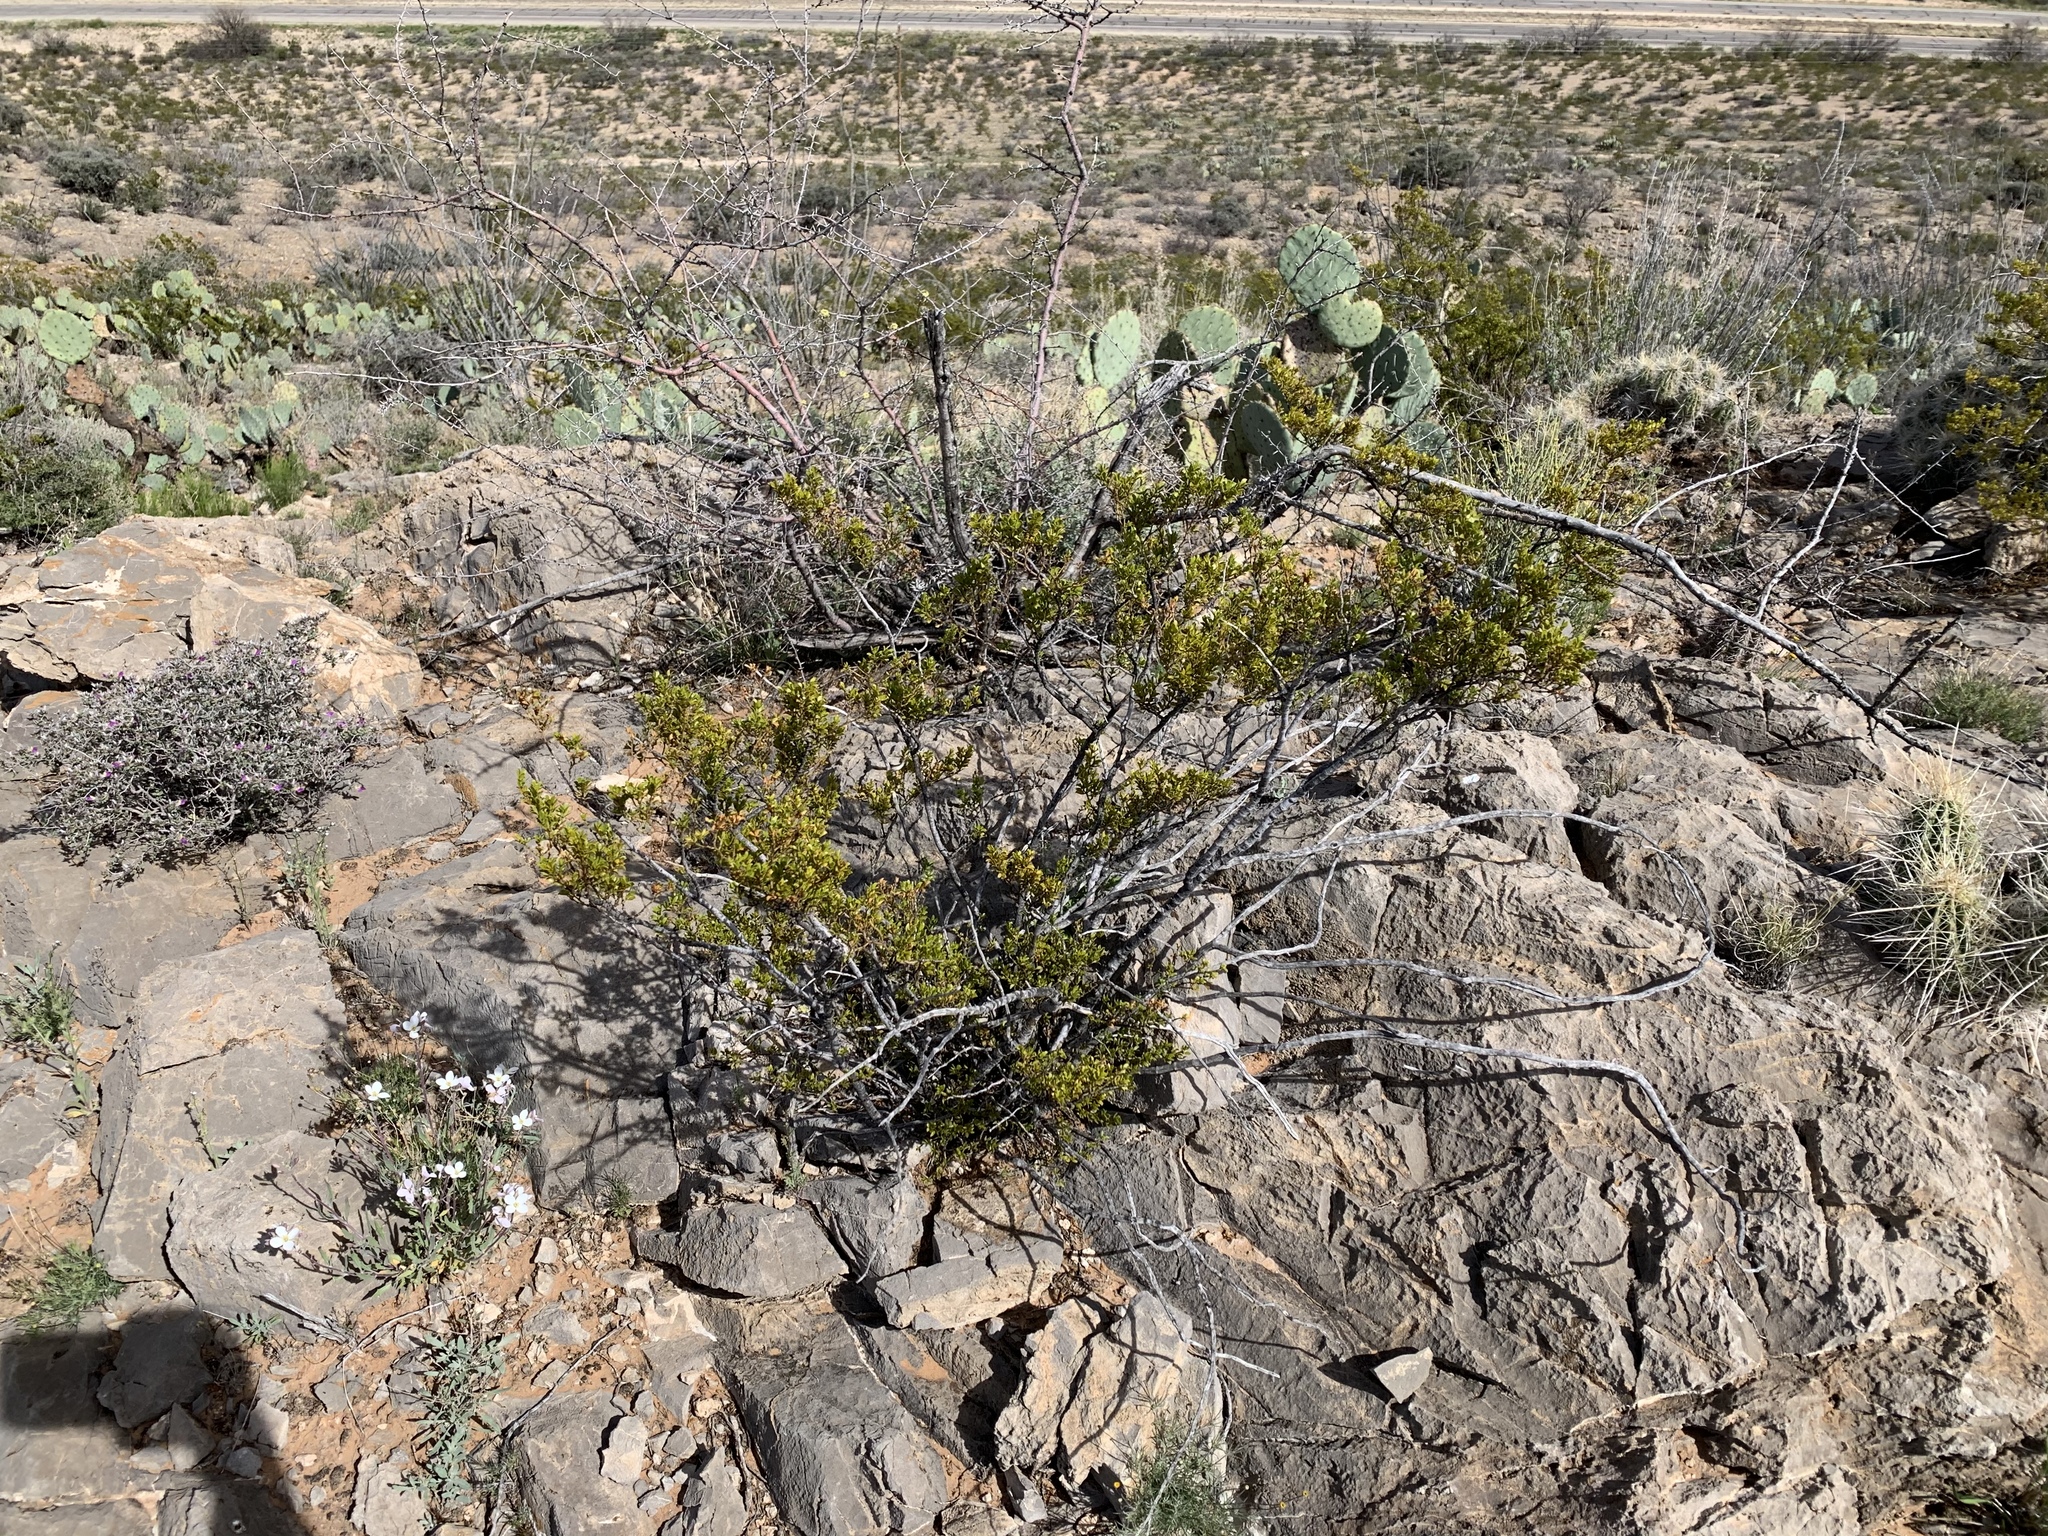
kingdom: Plantae
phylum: Tracheophyta
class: Magnoliopsida
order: Zygophyllales
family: Zygophyllaceae
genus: Larrea
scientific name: Larrea tridentata
